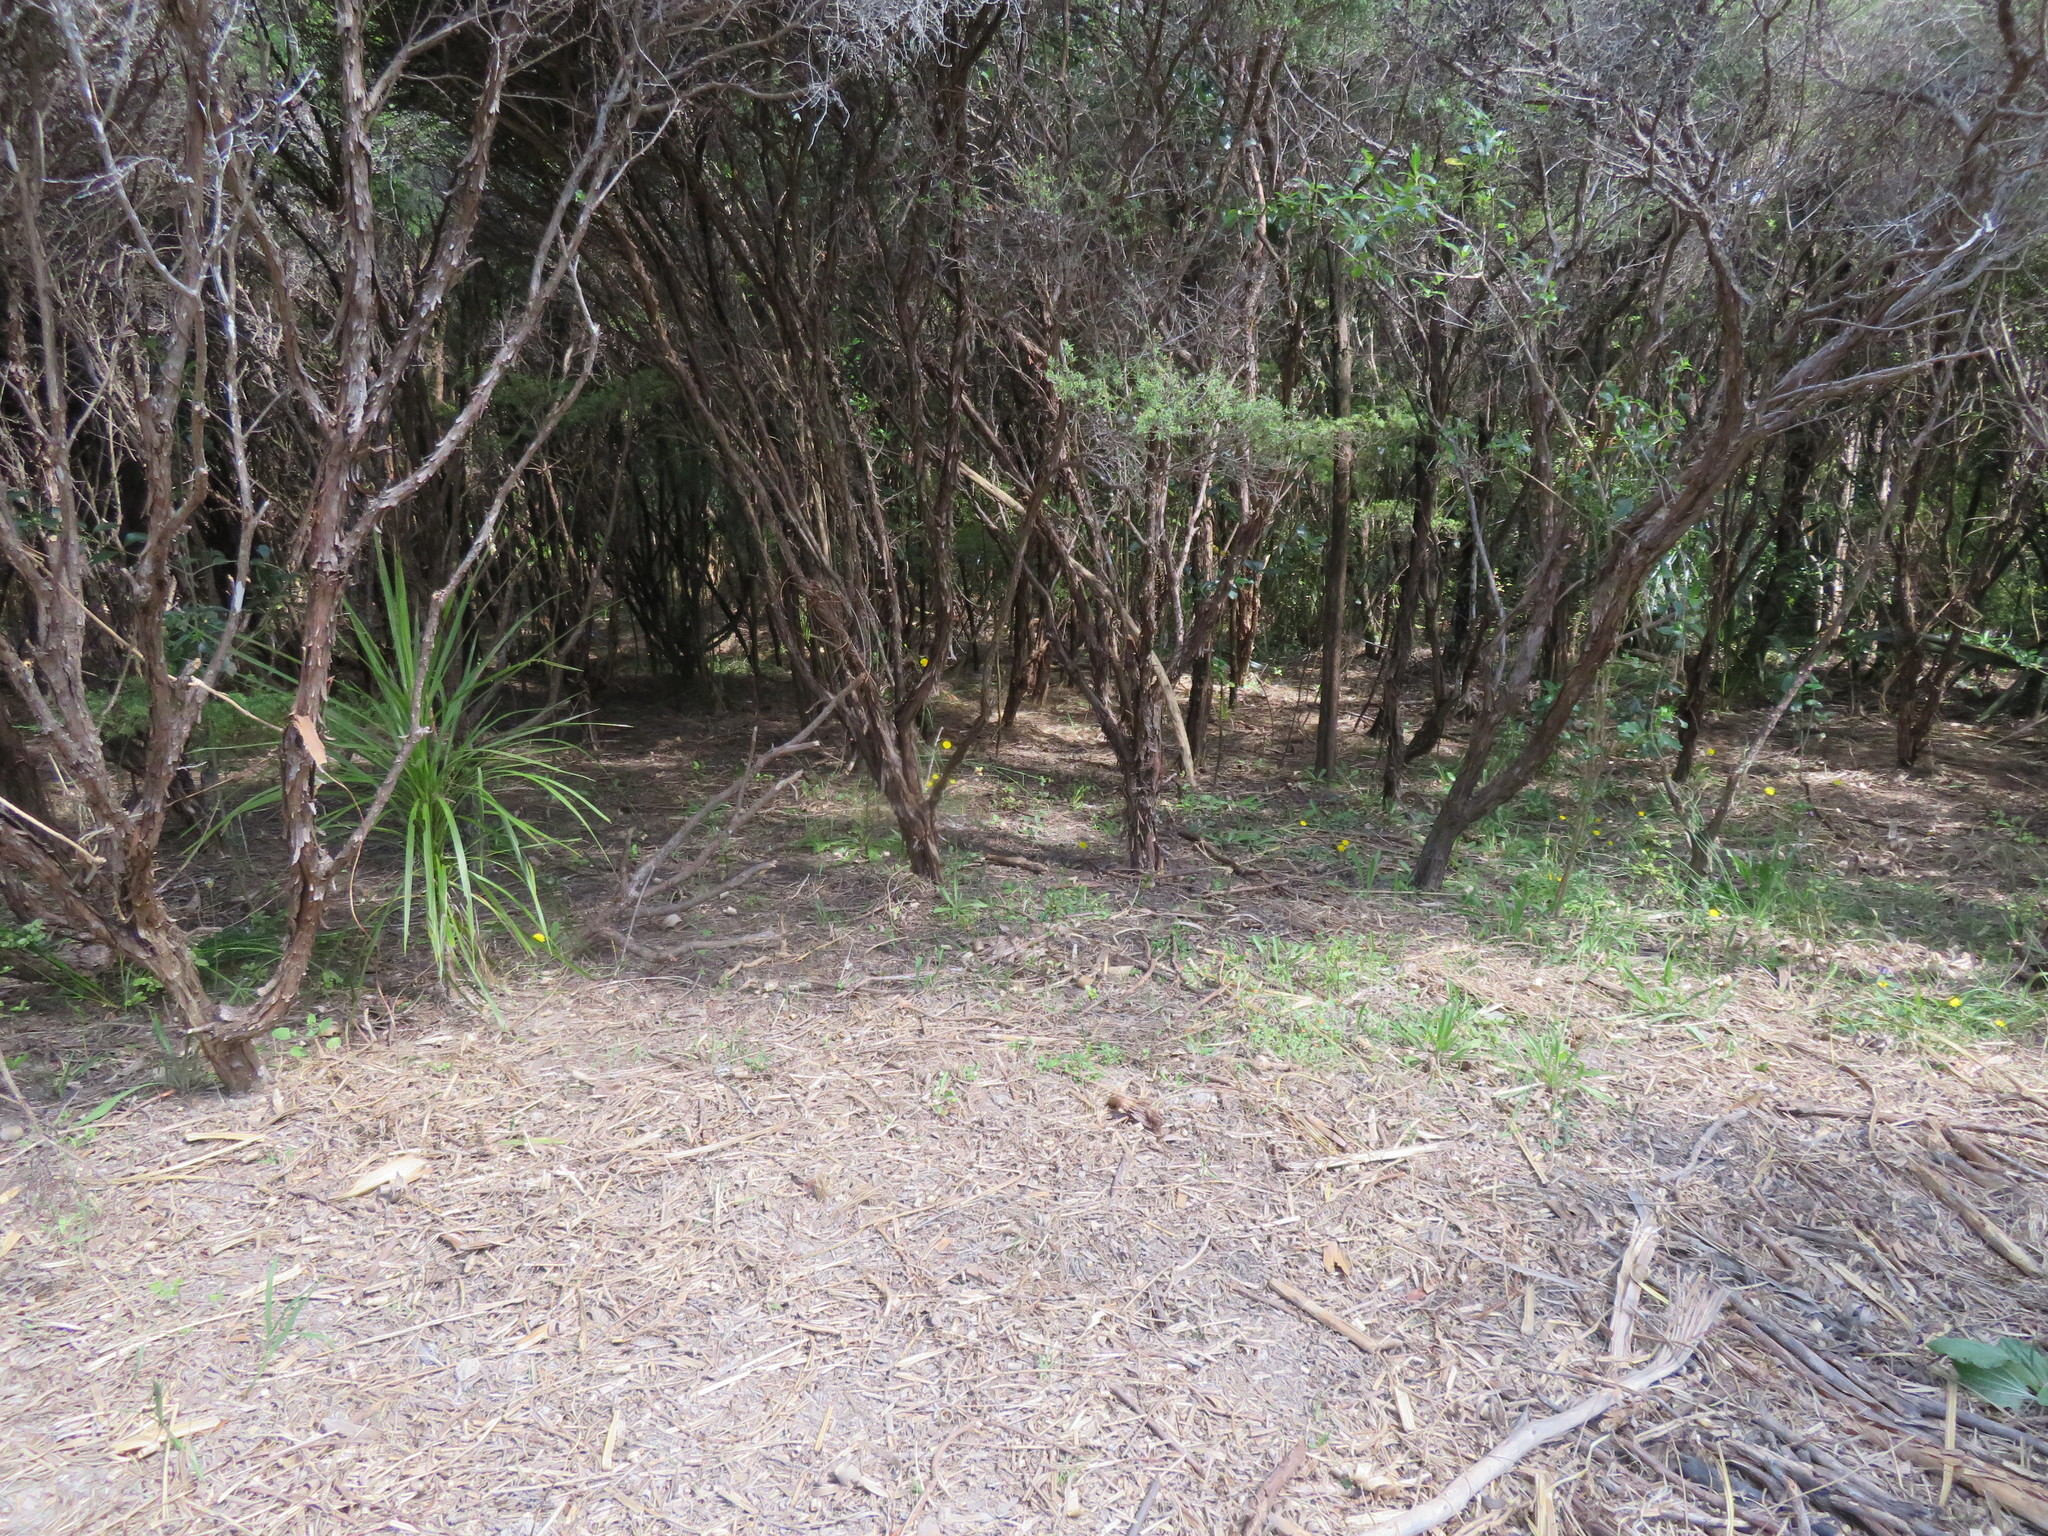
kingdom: Plantae
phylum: Tracheophyta
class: Magnoliopsida
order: Myrtales
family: Myrtaceae
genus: Leptospermum
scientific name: Leptospermum scoparium
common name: Broom tea-tree
